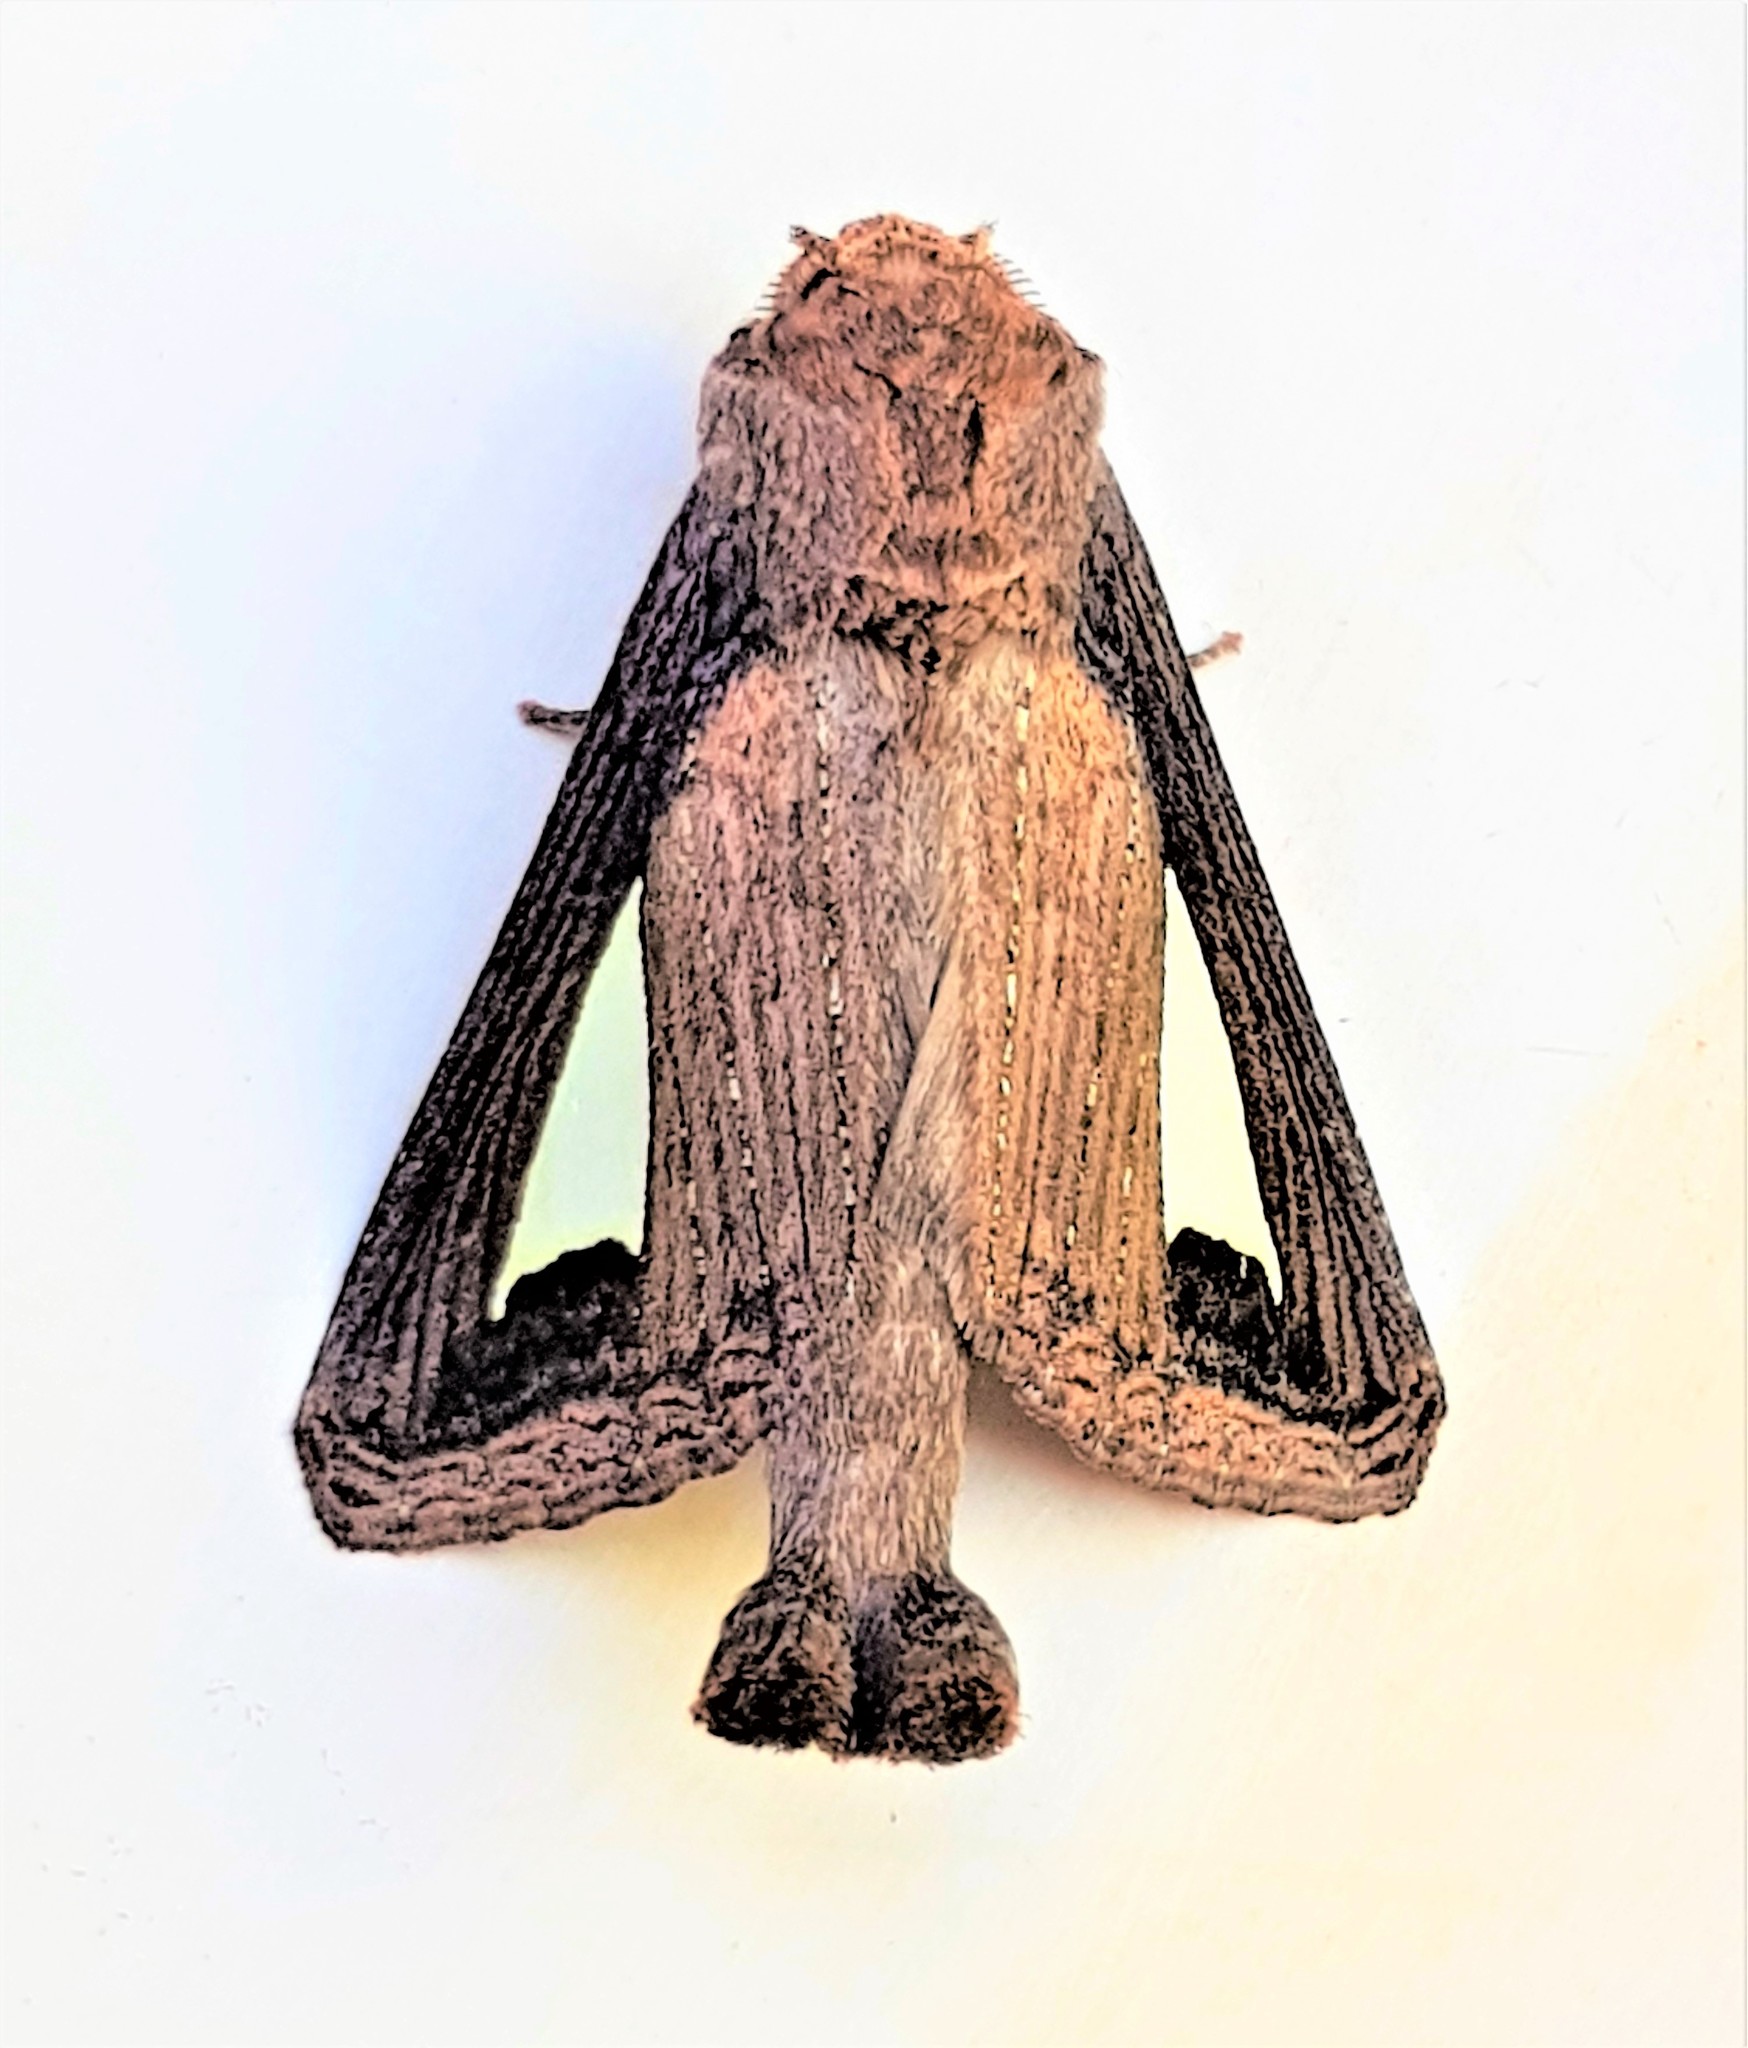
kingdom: Animalia
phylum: Arthropoda
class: Insecta
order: Lepidoptera
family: Notodontidae
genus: Notoplusia
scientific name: Notoplusia clara
